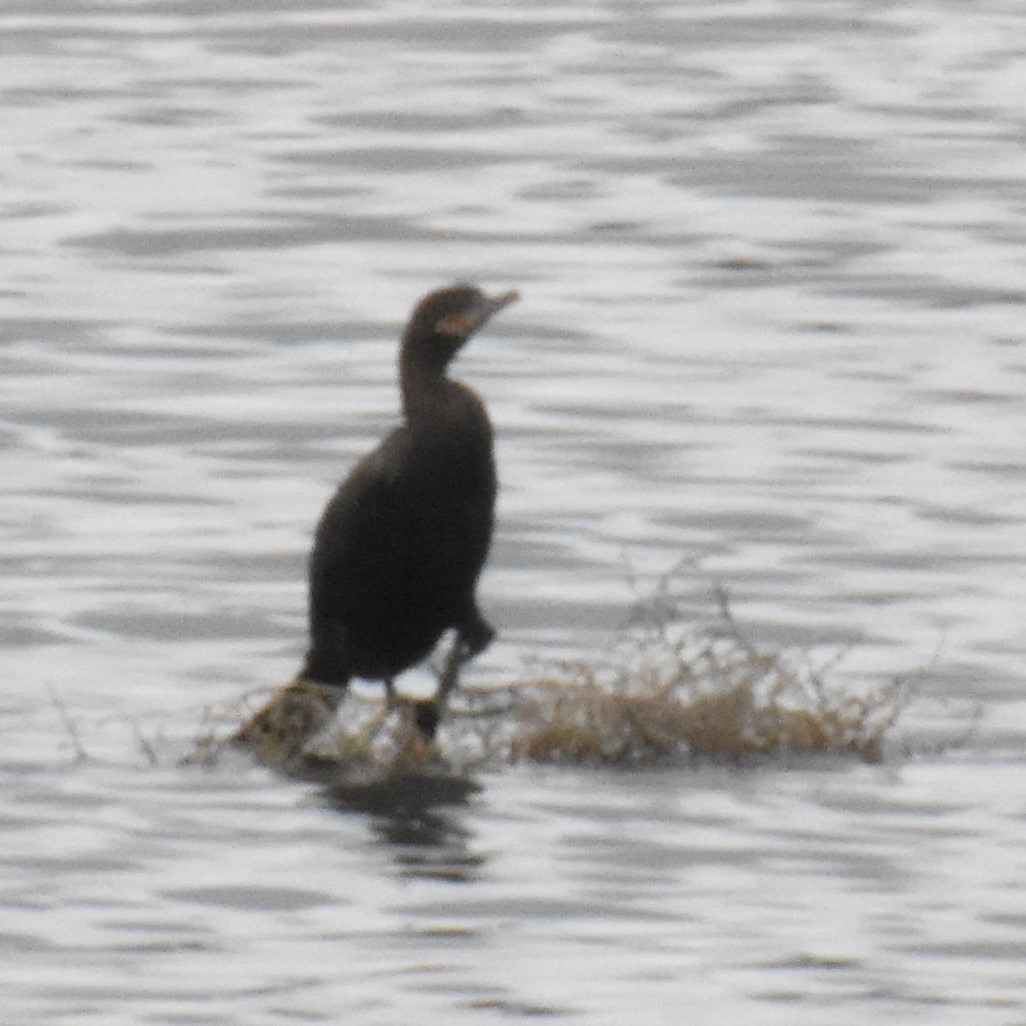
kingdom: Animalia
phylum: Chordata
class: Aves
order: Suliformes
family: Phalacrocoracidae
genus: Phalacrocorax
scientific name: Phalacrocorax auritus
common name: Double-crested cormorant
